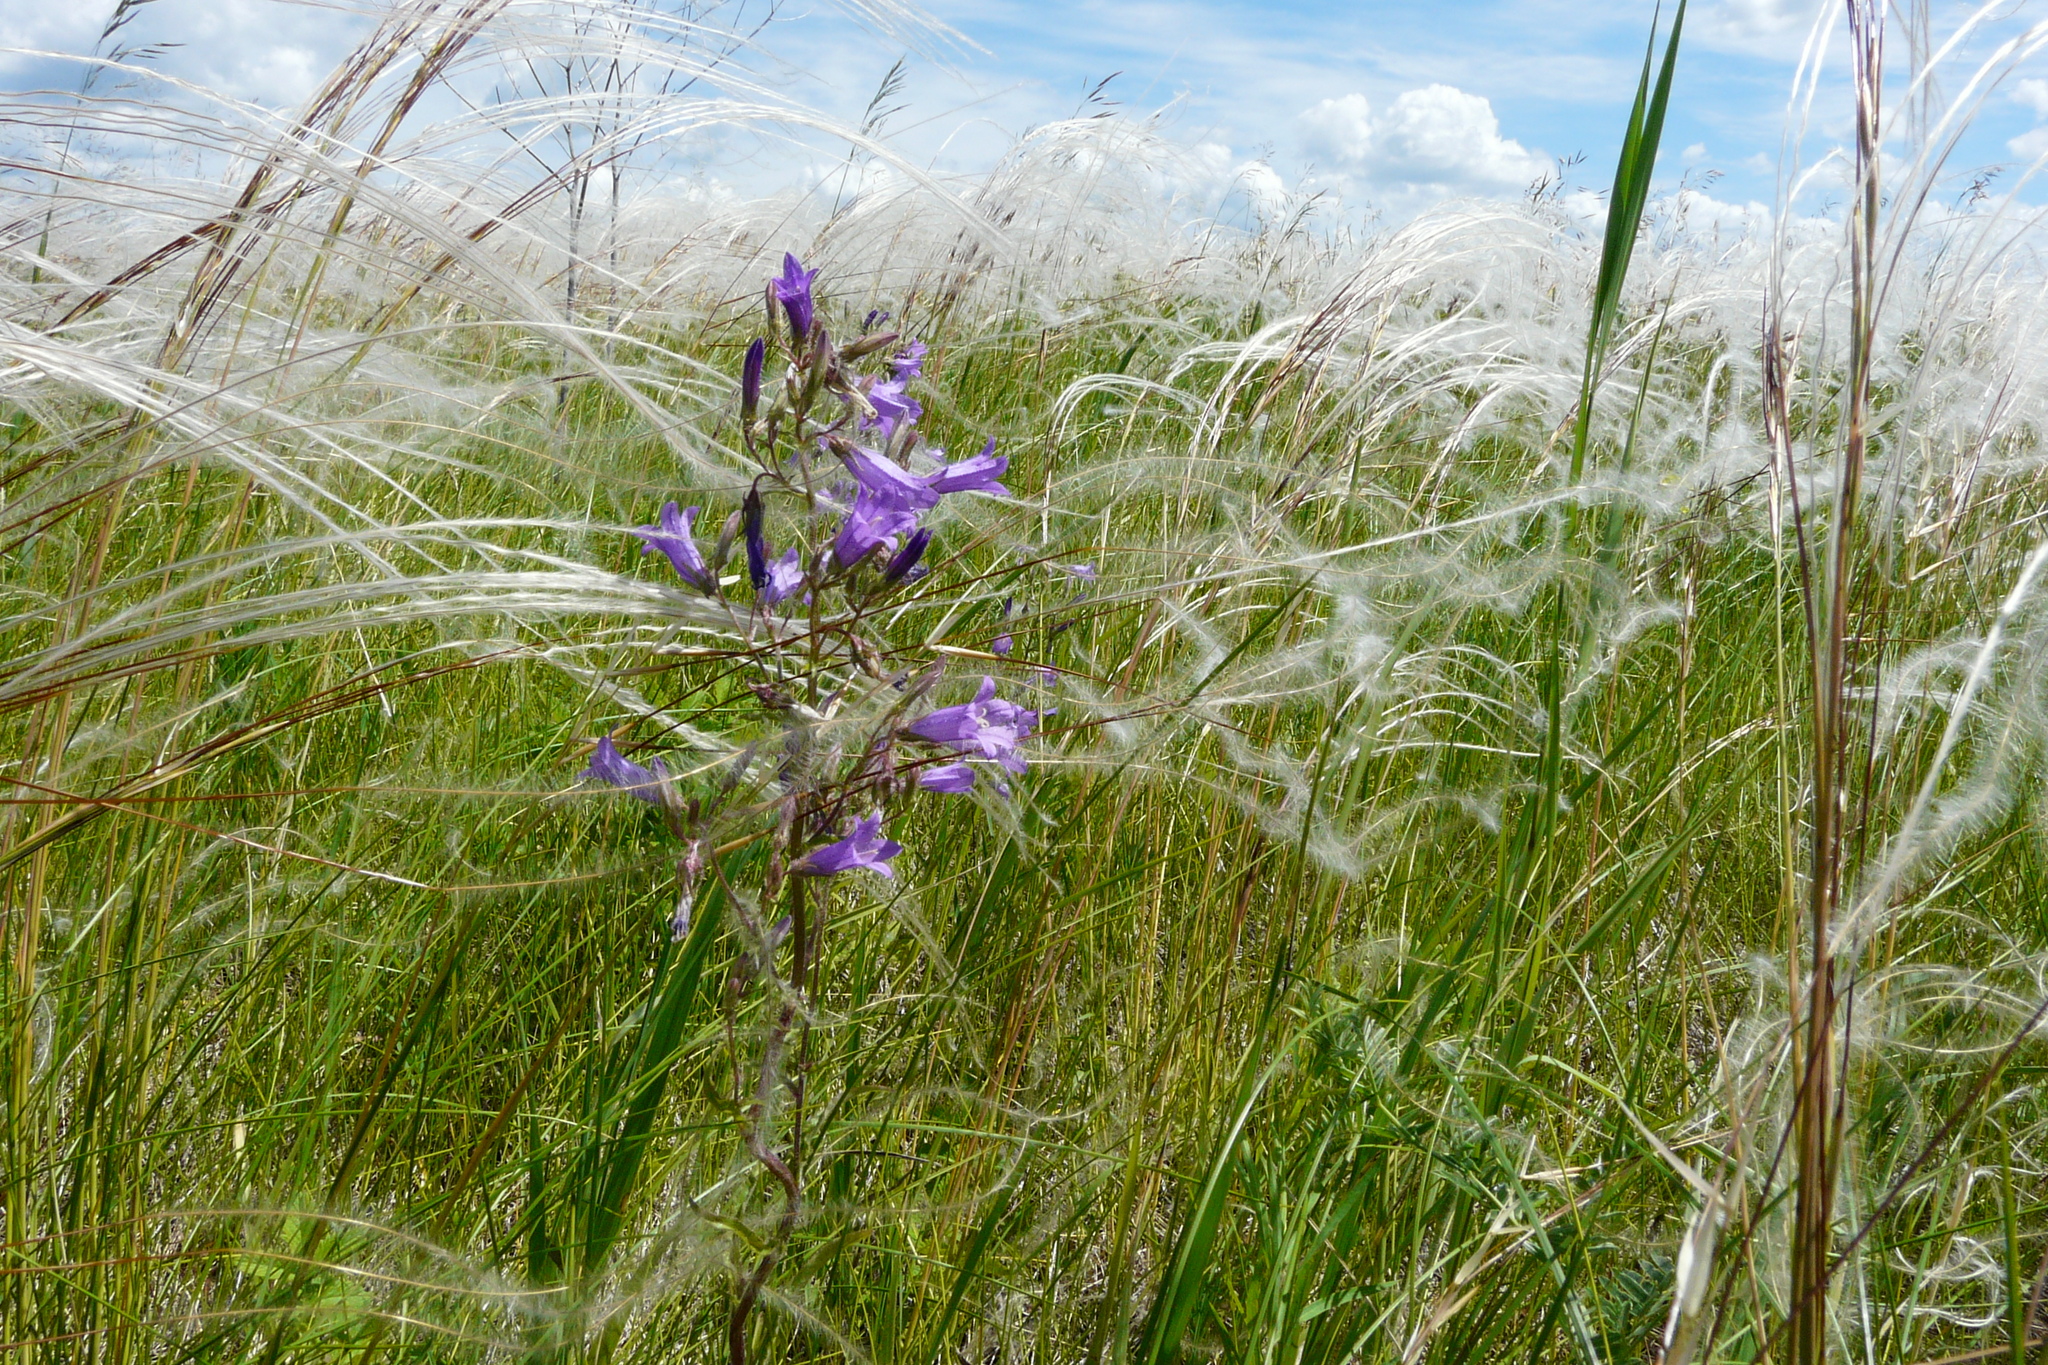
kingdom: Plantae
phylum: Tracheophyta
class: Magnoliopsida
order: Asterales
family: Campanulaceae
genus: Campanula
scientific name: Campanula sibirica
